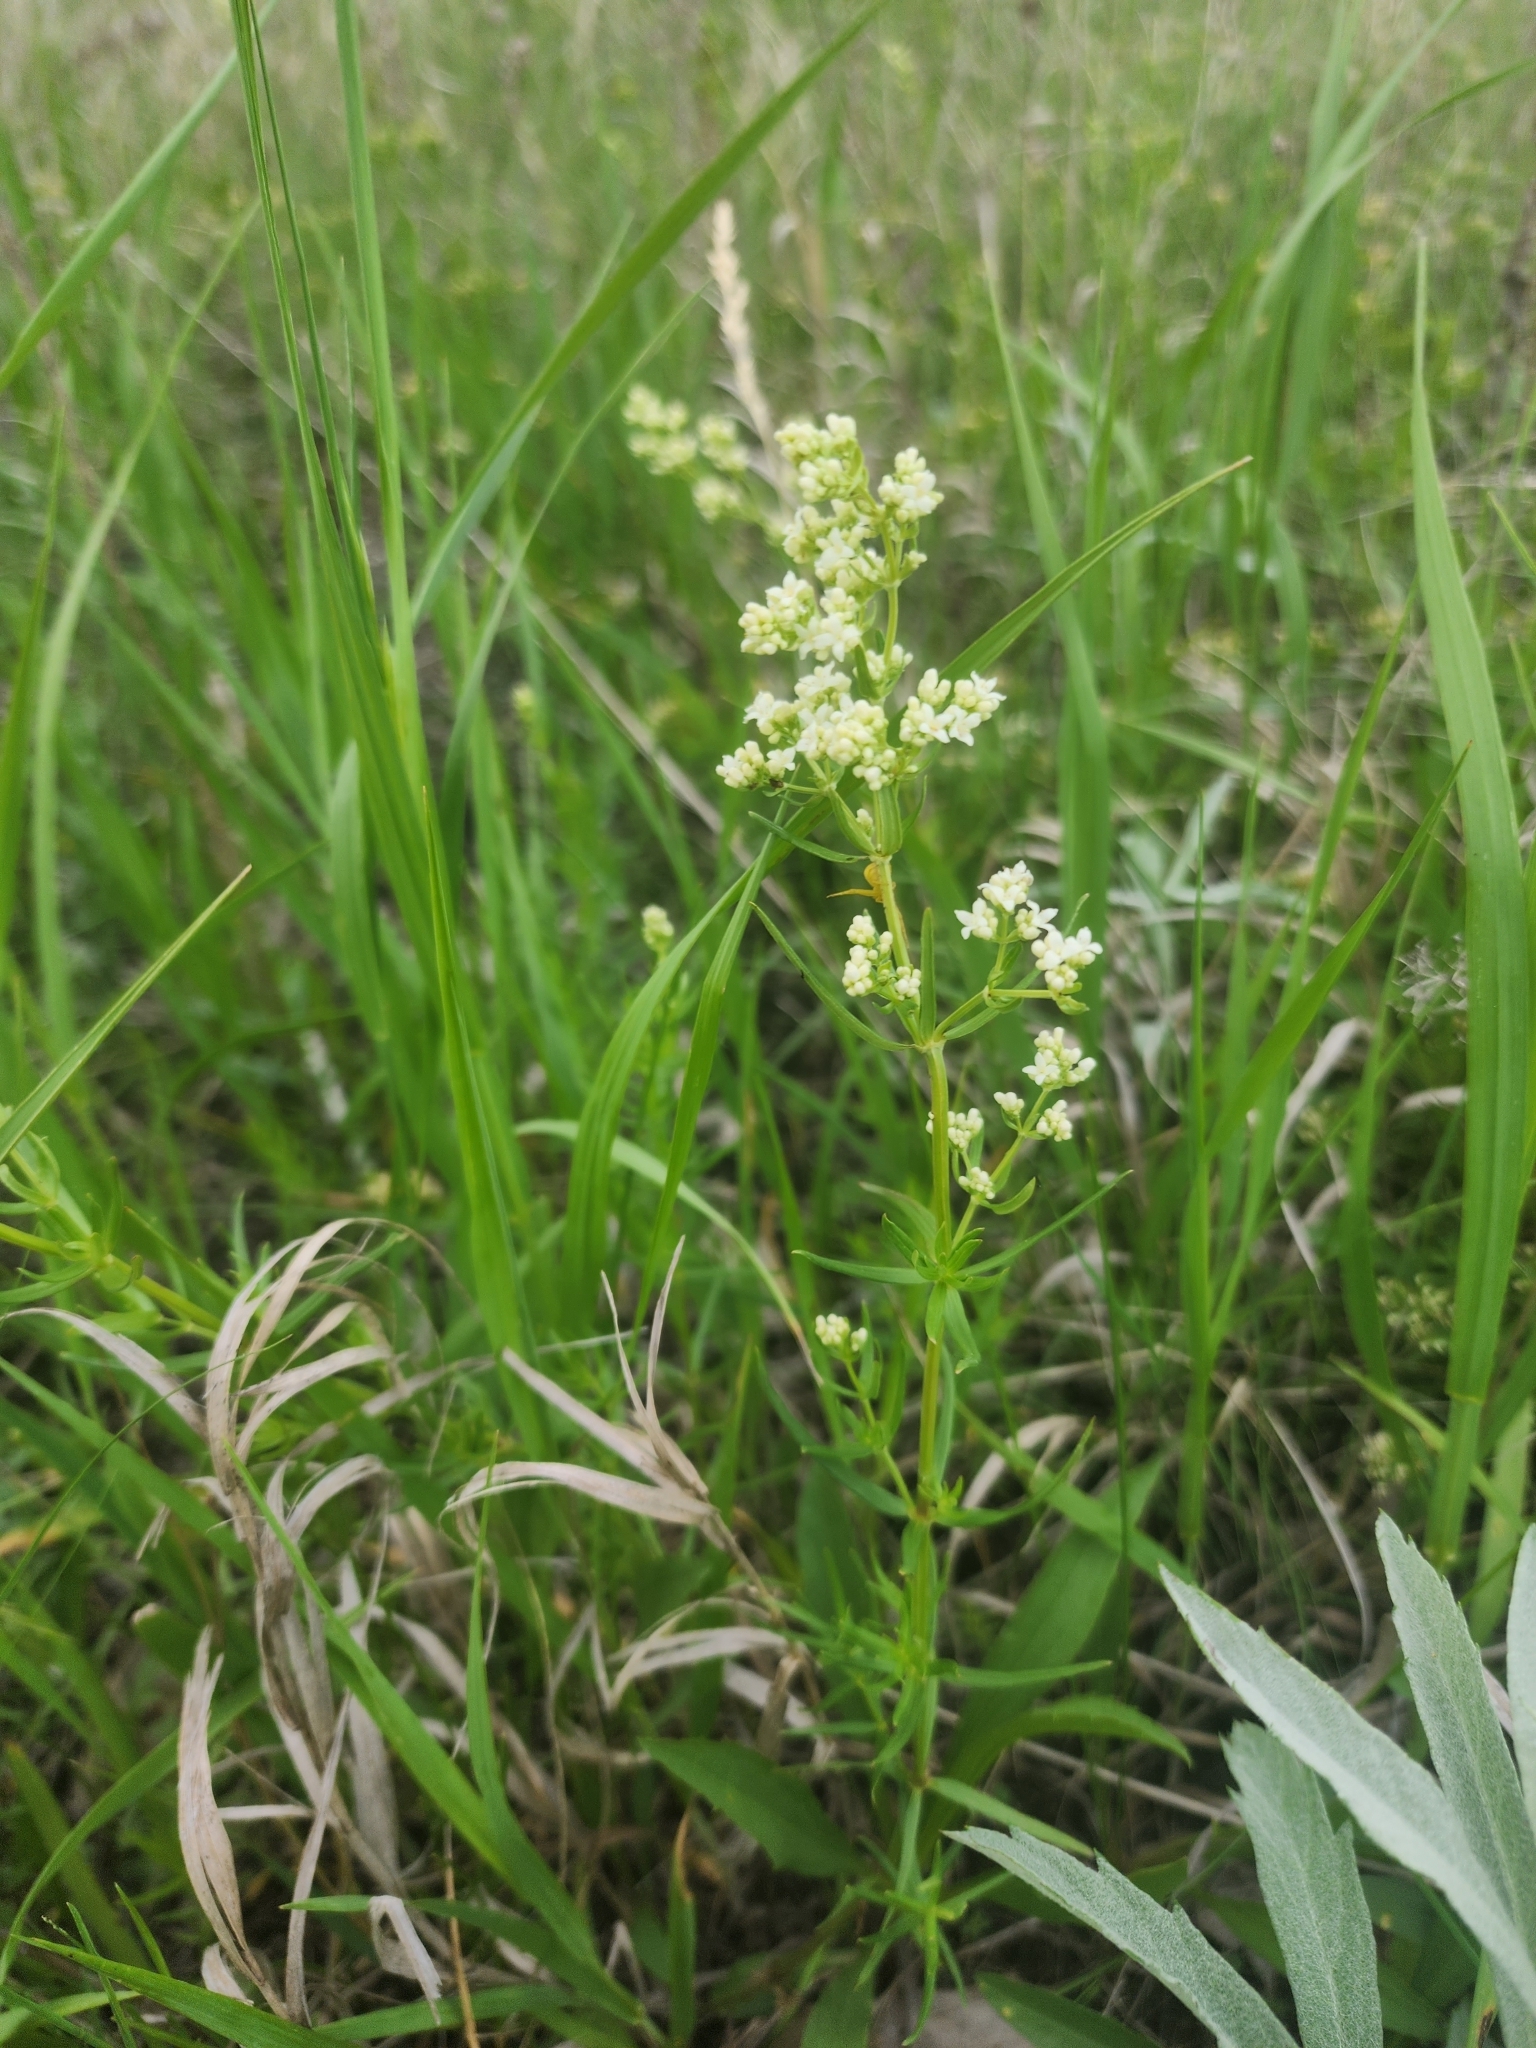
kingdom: Plantae
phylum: Tracheophyta
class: Magnoliopsida
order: Gentianales
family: Rubiaceae
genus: Galium
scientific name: Galium boreale
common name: Northern bedstraw
